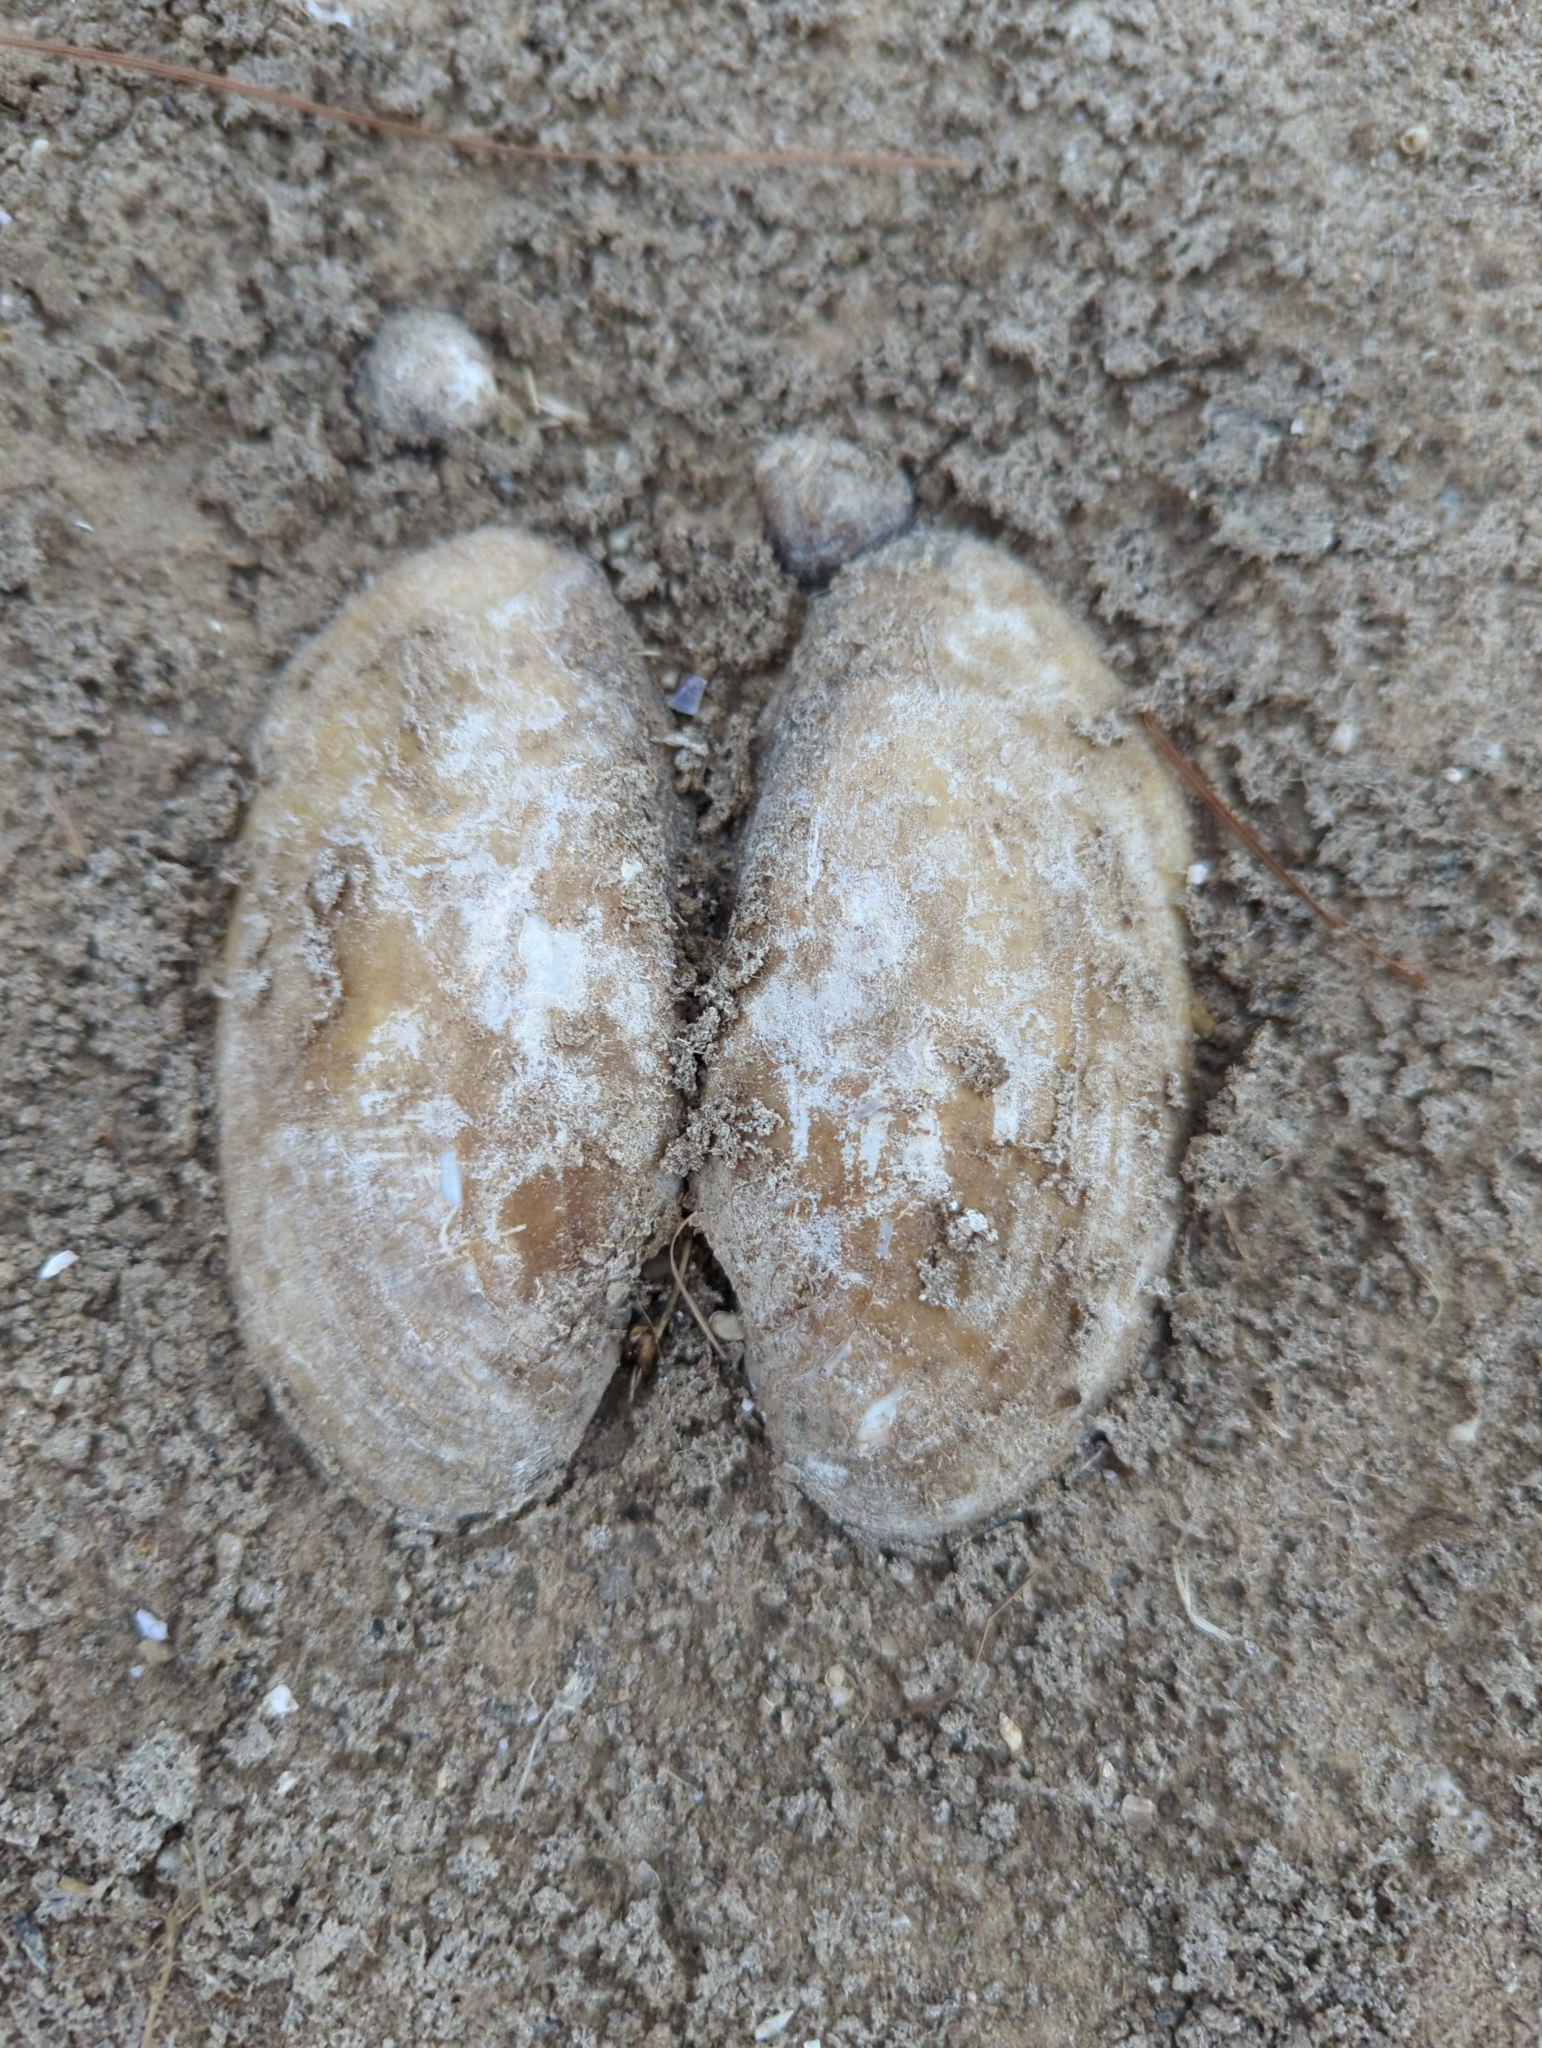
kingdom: Animalia
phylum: Mollusca
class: Bivalvia
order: Unionida
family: Unionidae
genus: Lampsilis
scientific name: Lampsilis teres
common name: Yellow sandshell
